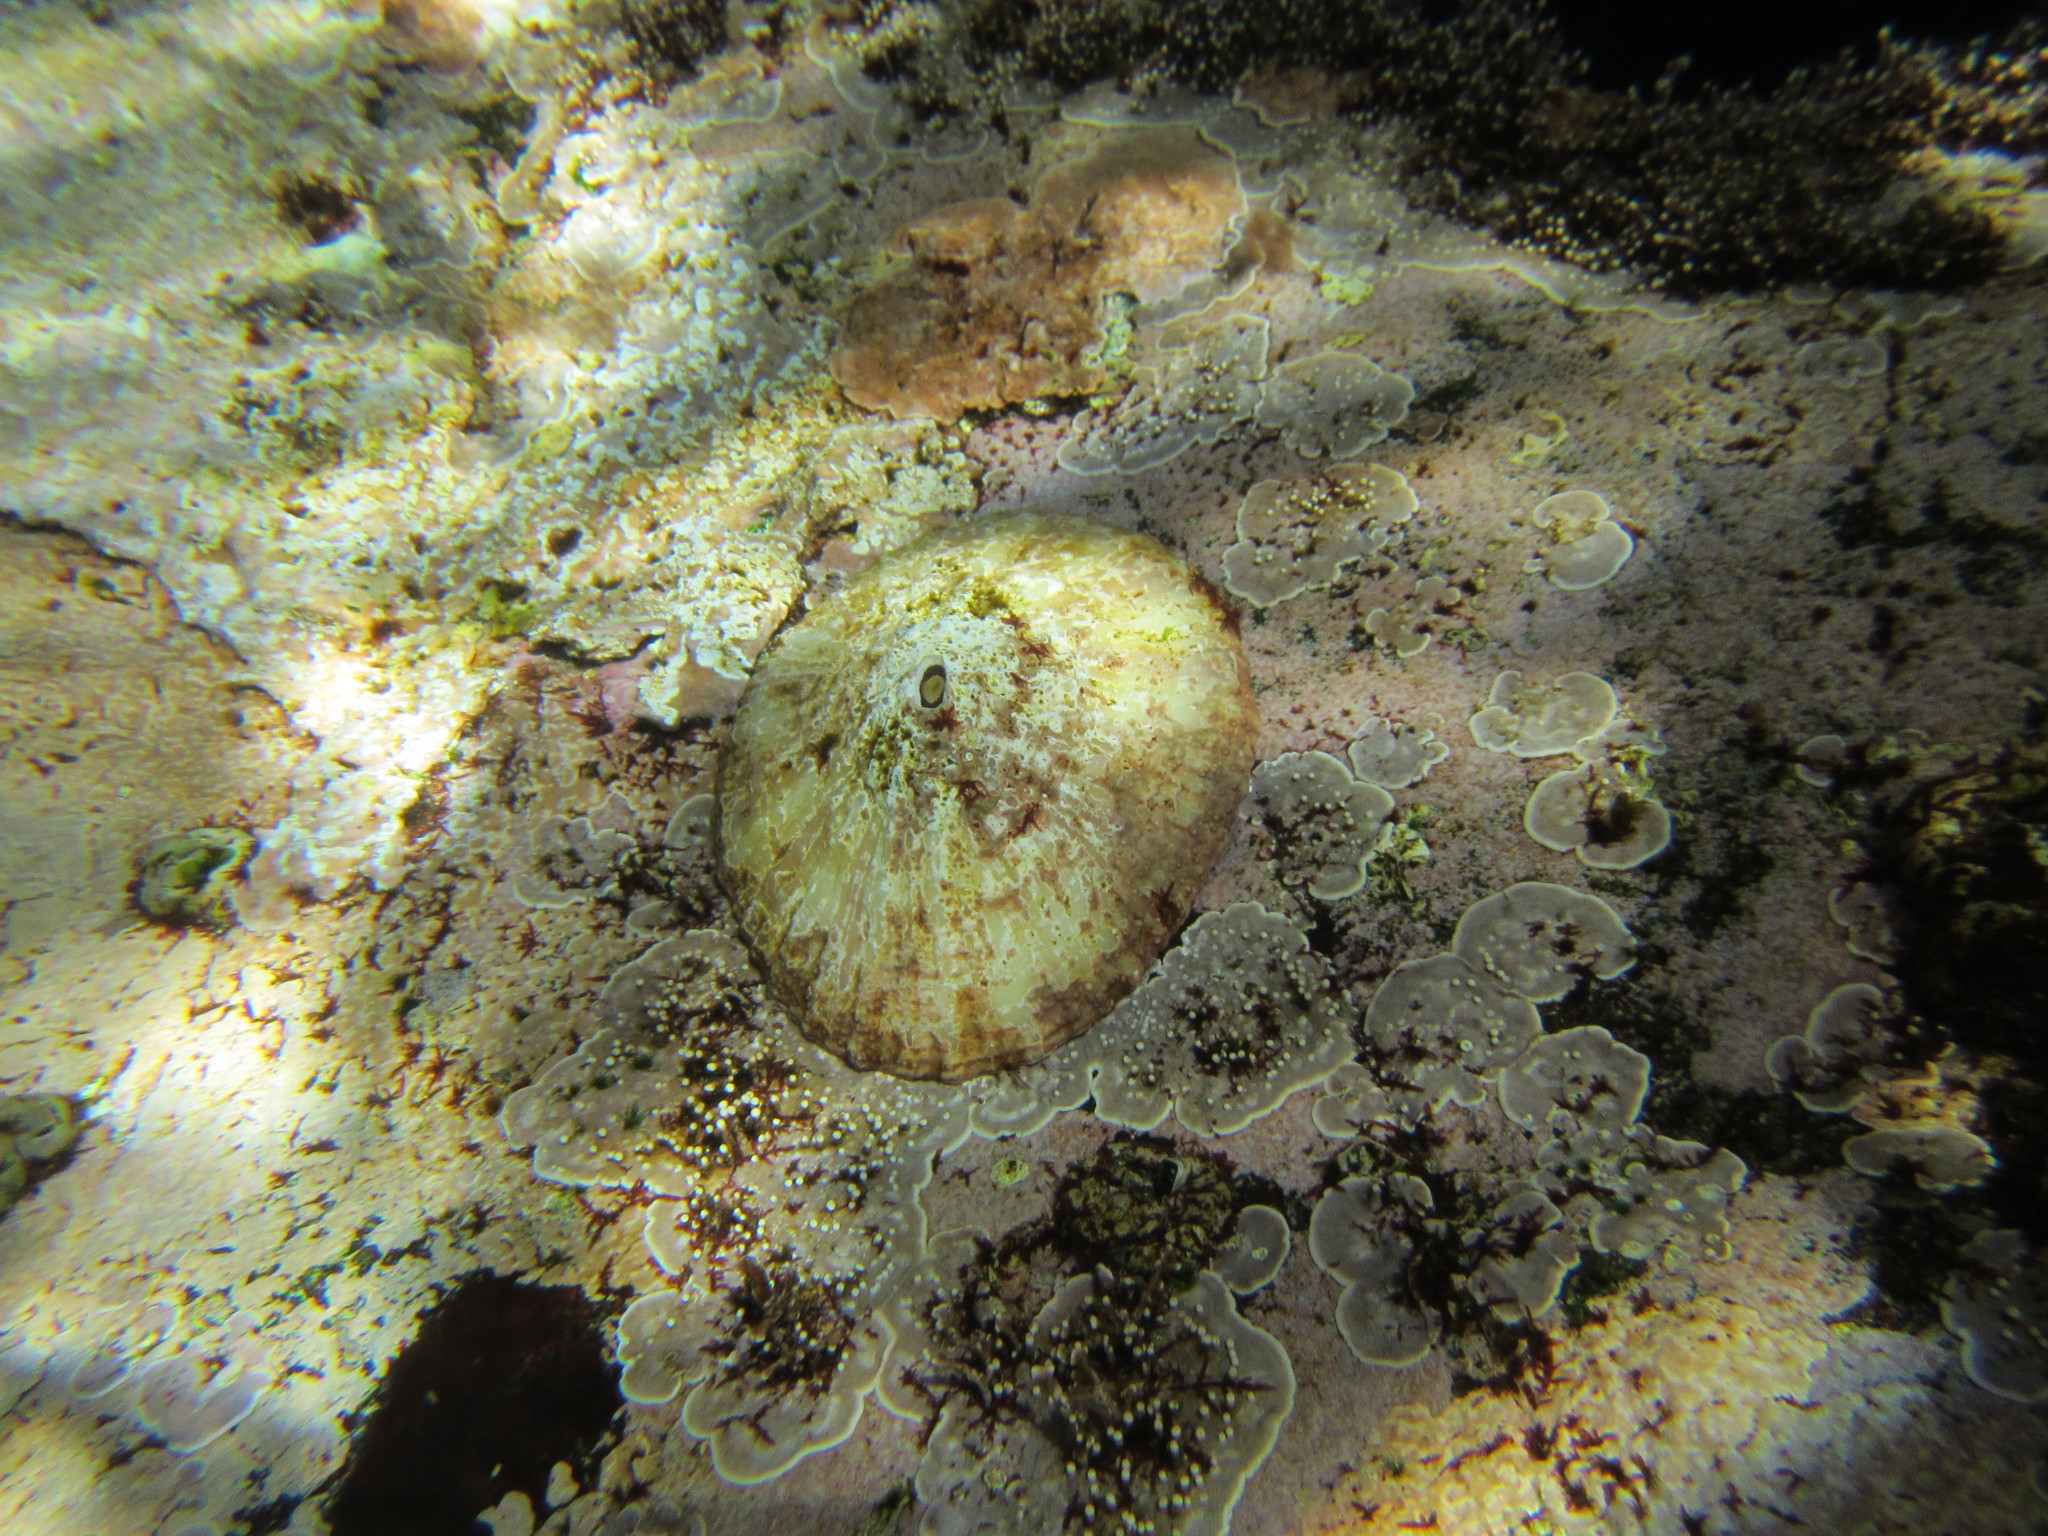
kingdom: Animalia
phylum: Mollusca
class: Gastropoda
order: Lepetellida
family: Fissurellidae
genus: Fissurella
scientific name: Fissurella costata
